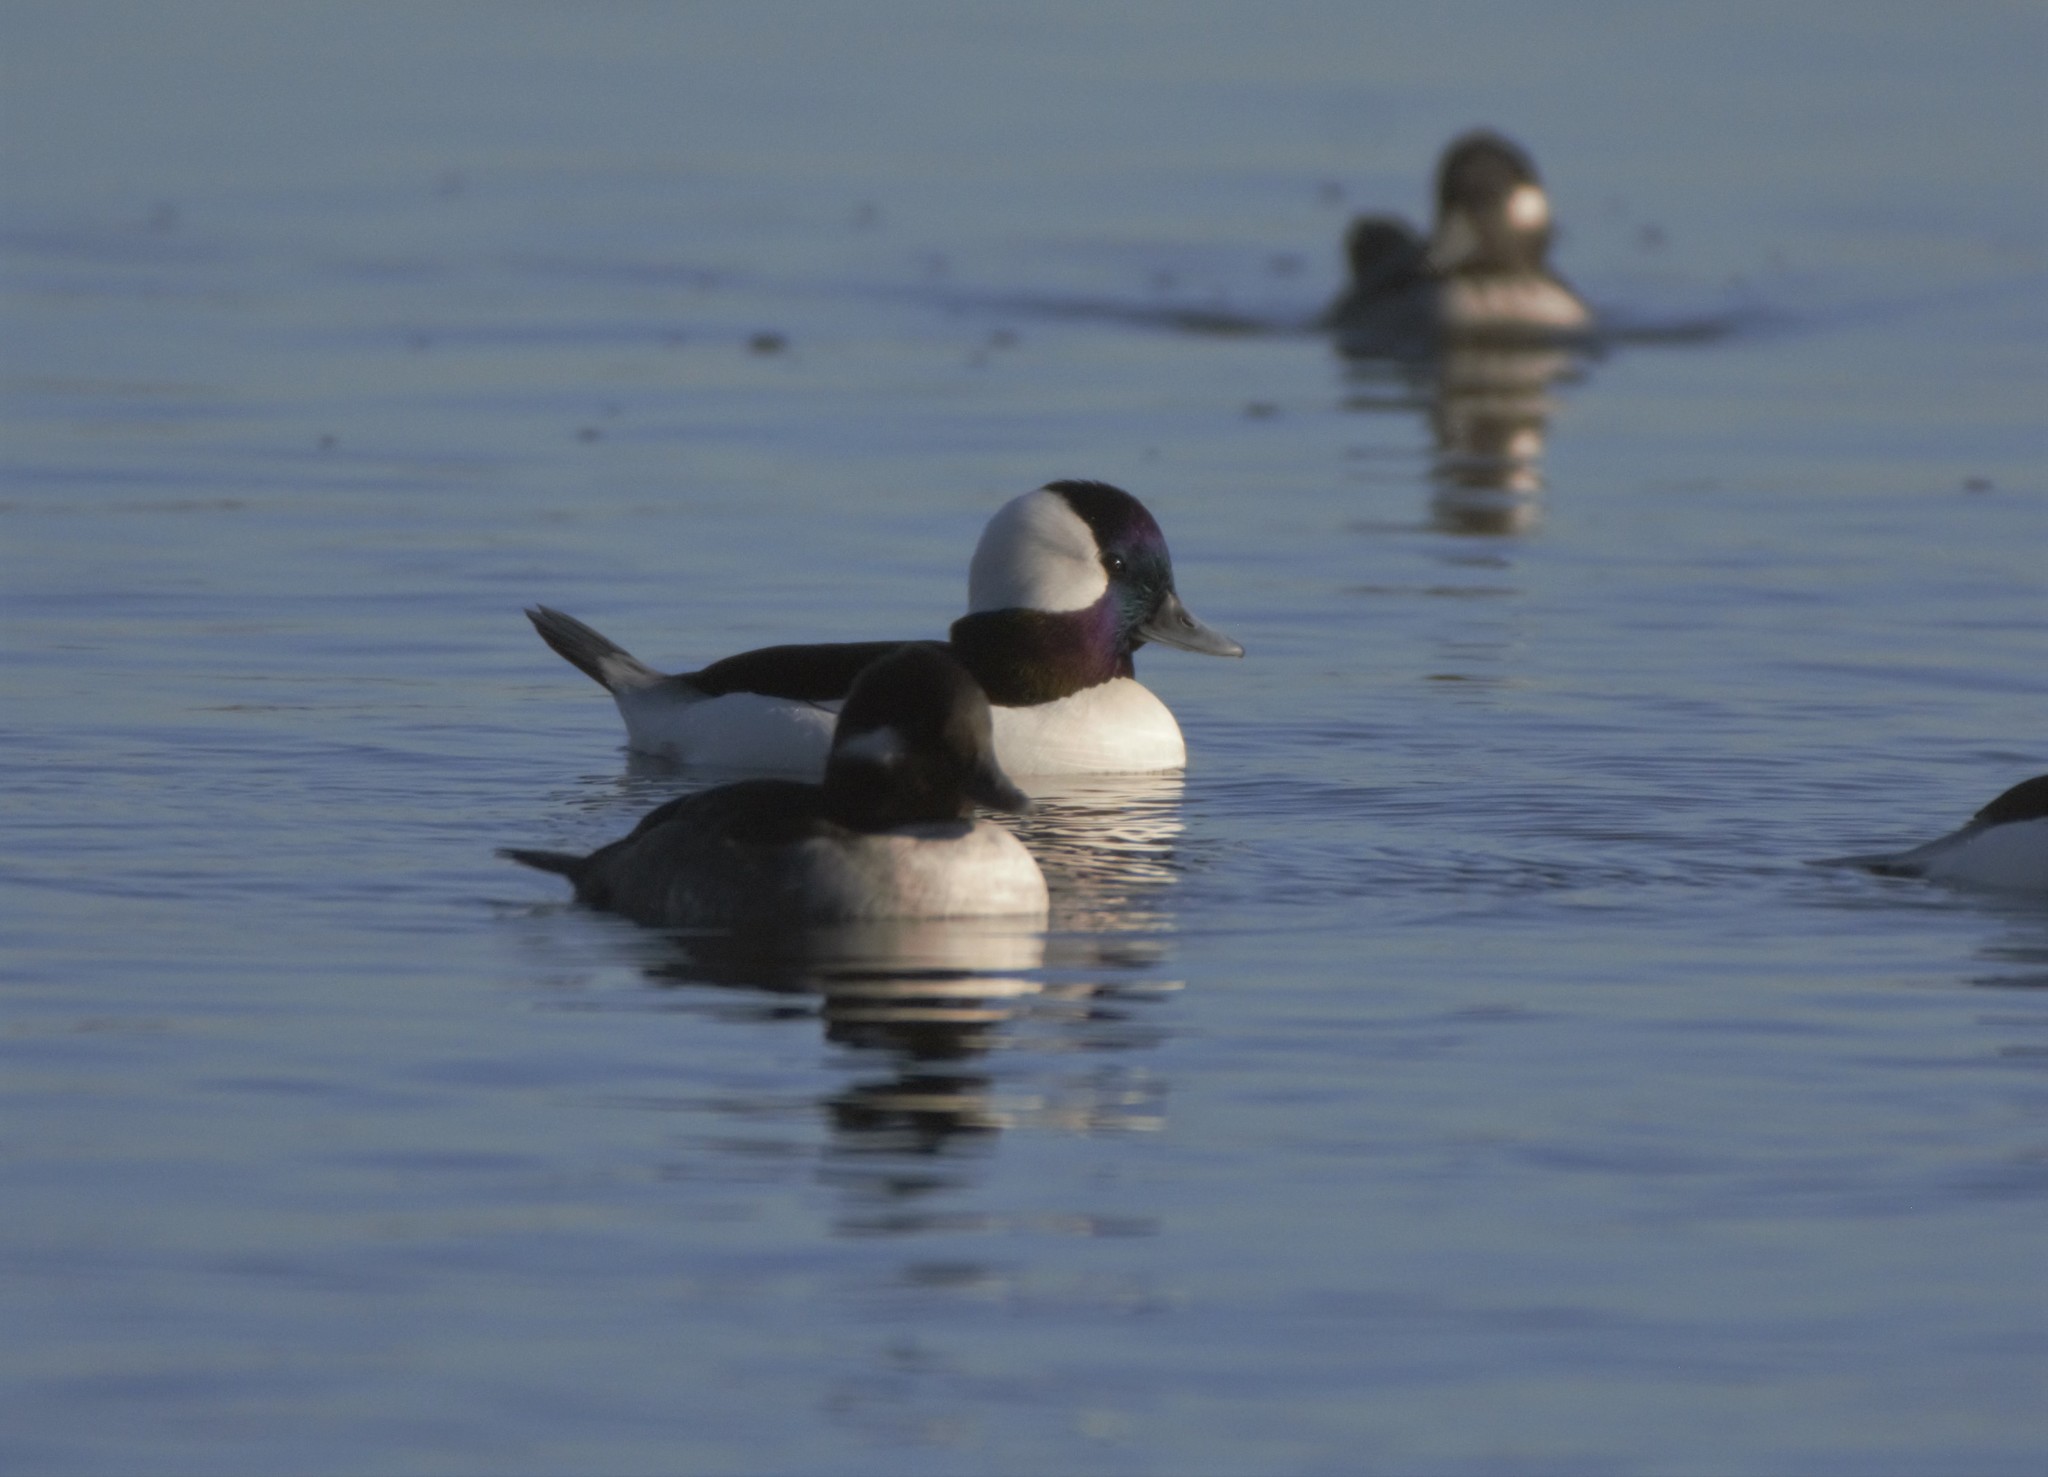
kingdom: Animalia
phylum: Chordata
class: Aves
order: Anseriformes
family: Anatidae
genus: Bucephala
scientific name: Bucephala albeola
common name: Bufflehead
